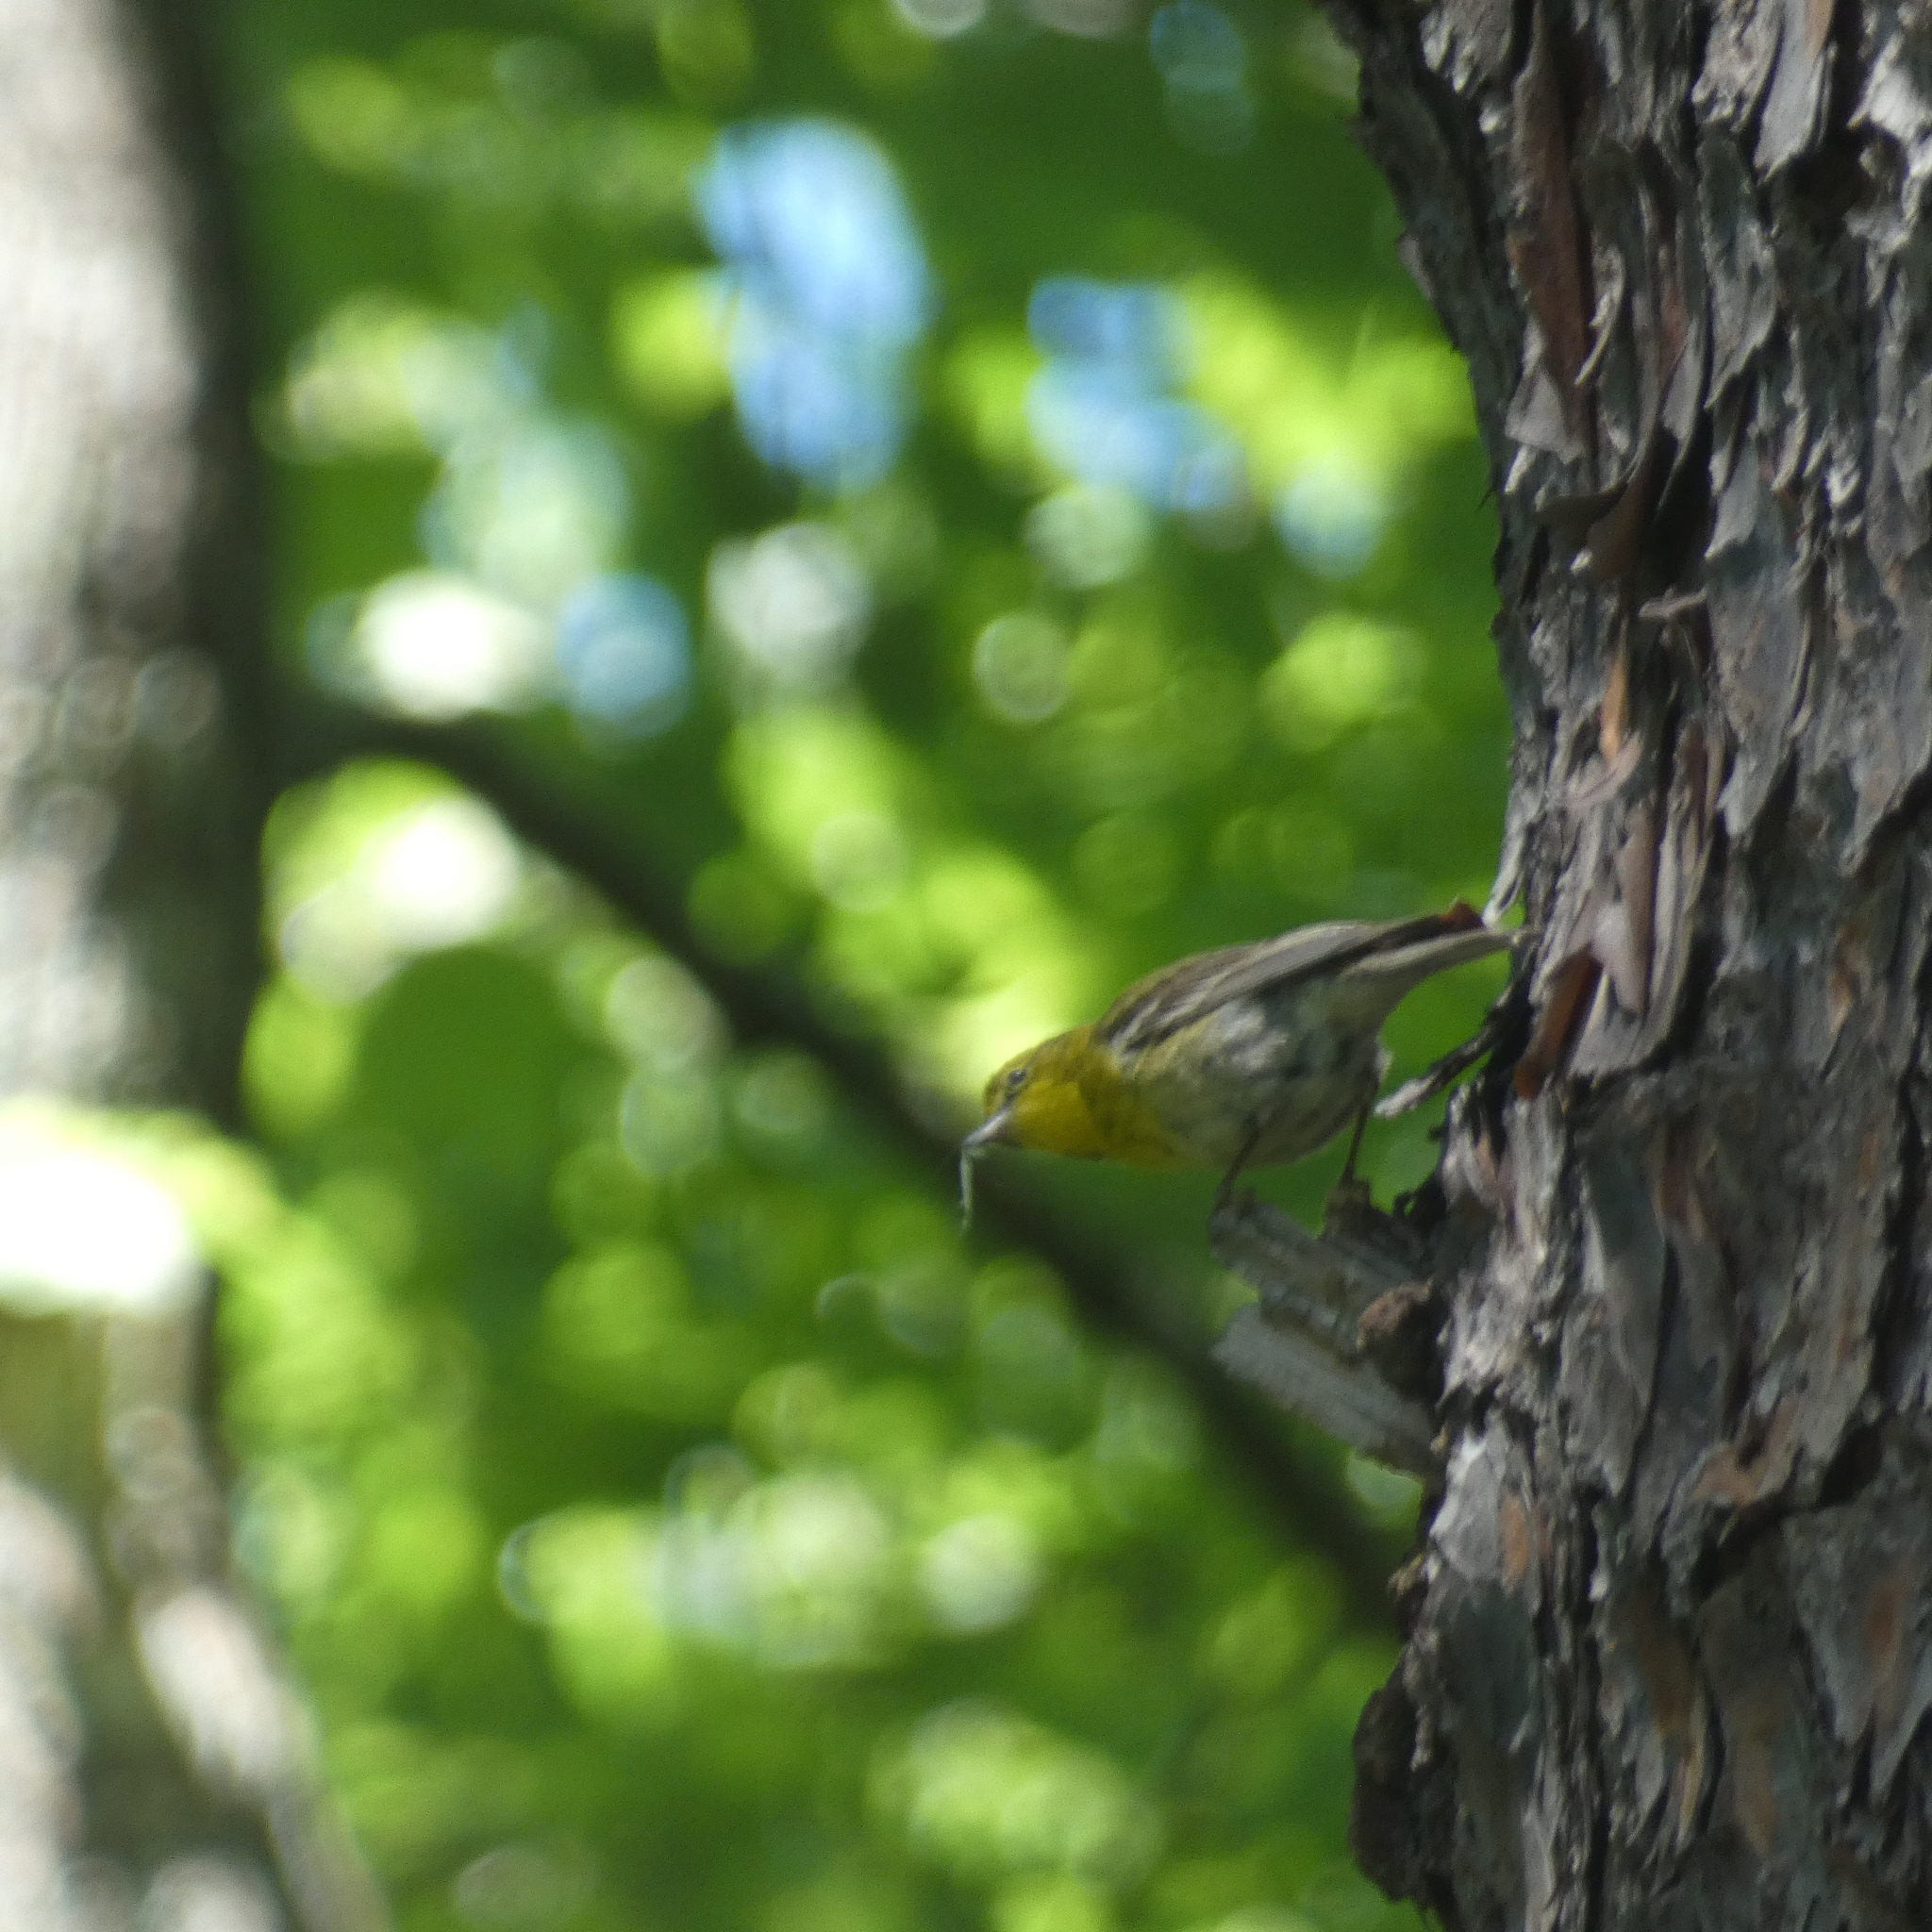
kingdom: Animalia
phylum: Chordata
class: Aves
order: Passeriformes
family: Parulidae
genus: Setophaga
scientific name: Setophaga pinus
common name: Pine warbler
